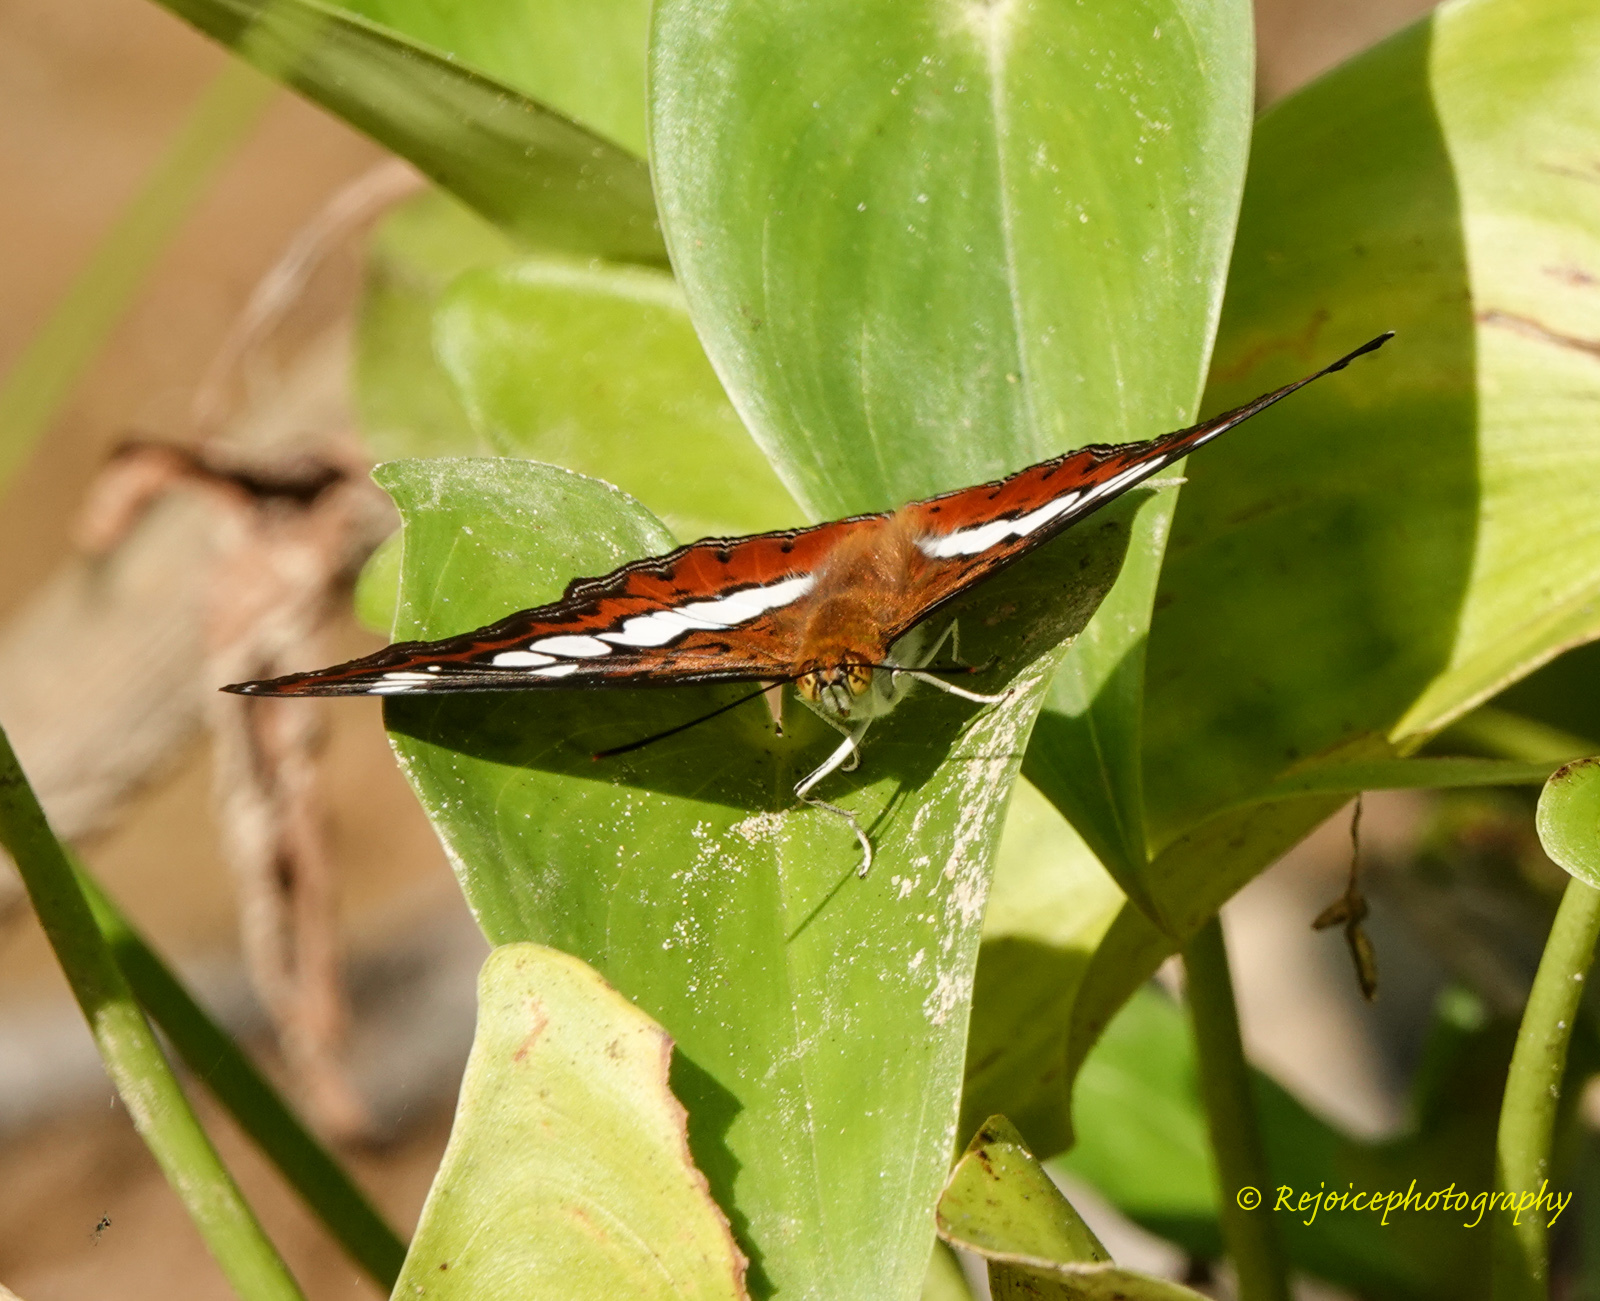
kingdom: Animalia
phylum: Arthropoda
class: Insecta
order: Lepidoptera
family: Nymphalidae
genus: Limenitis
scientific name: Limenitis Moduza procris
